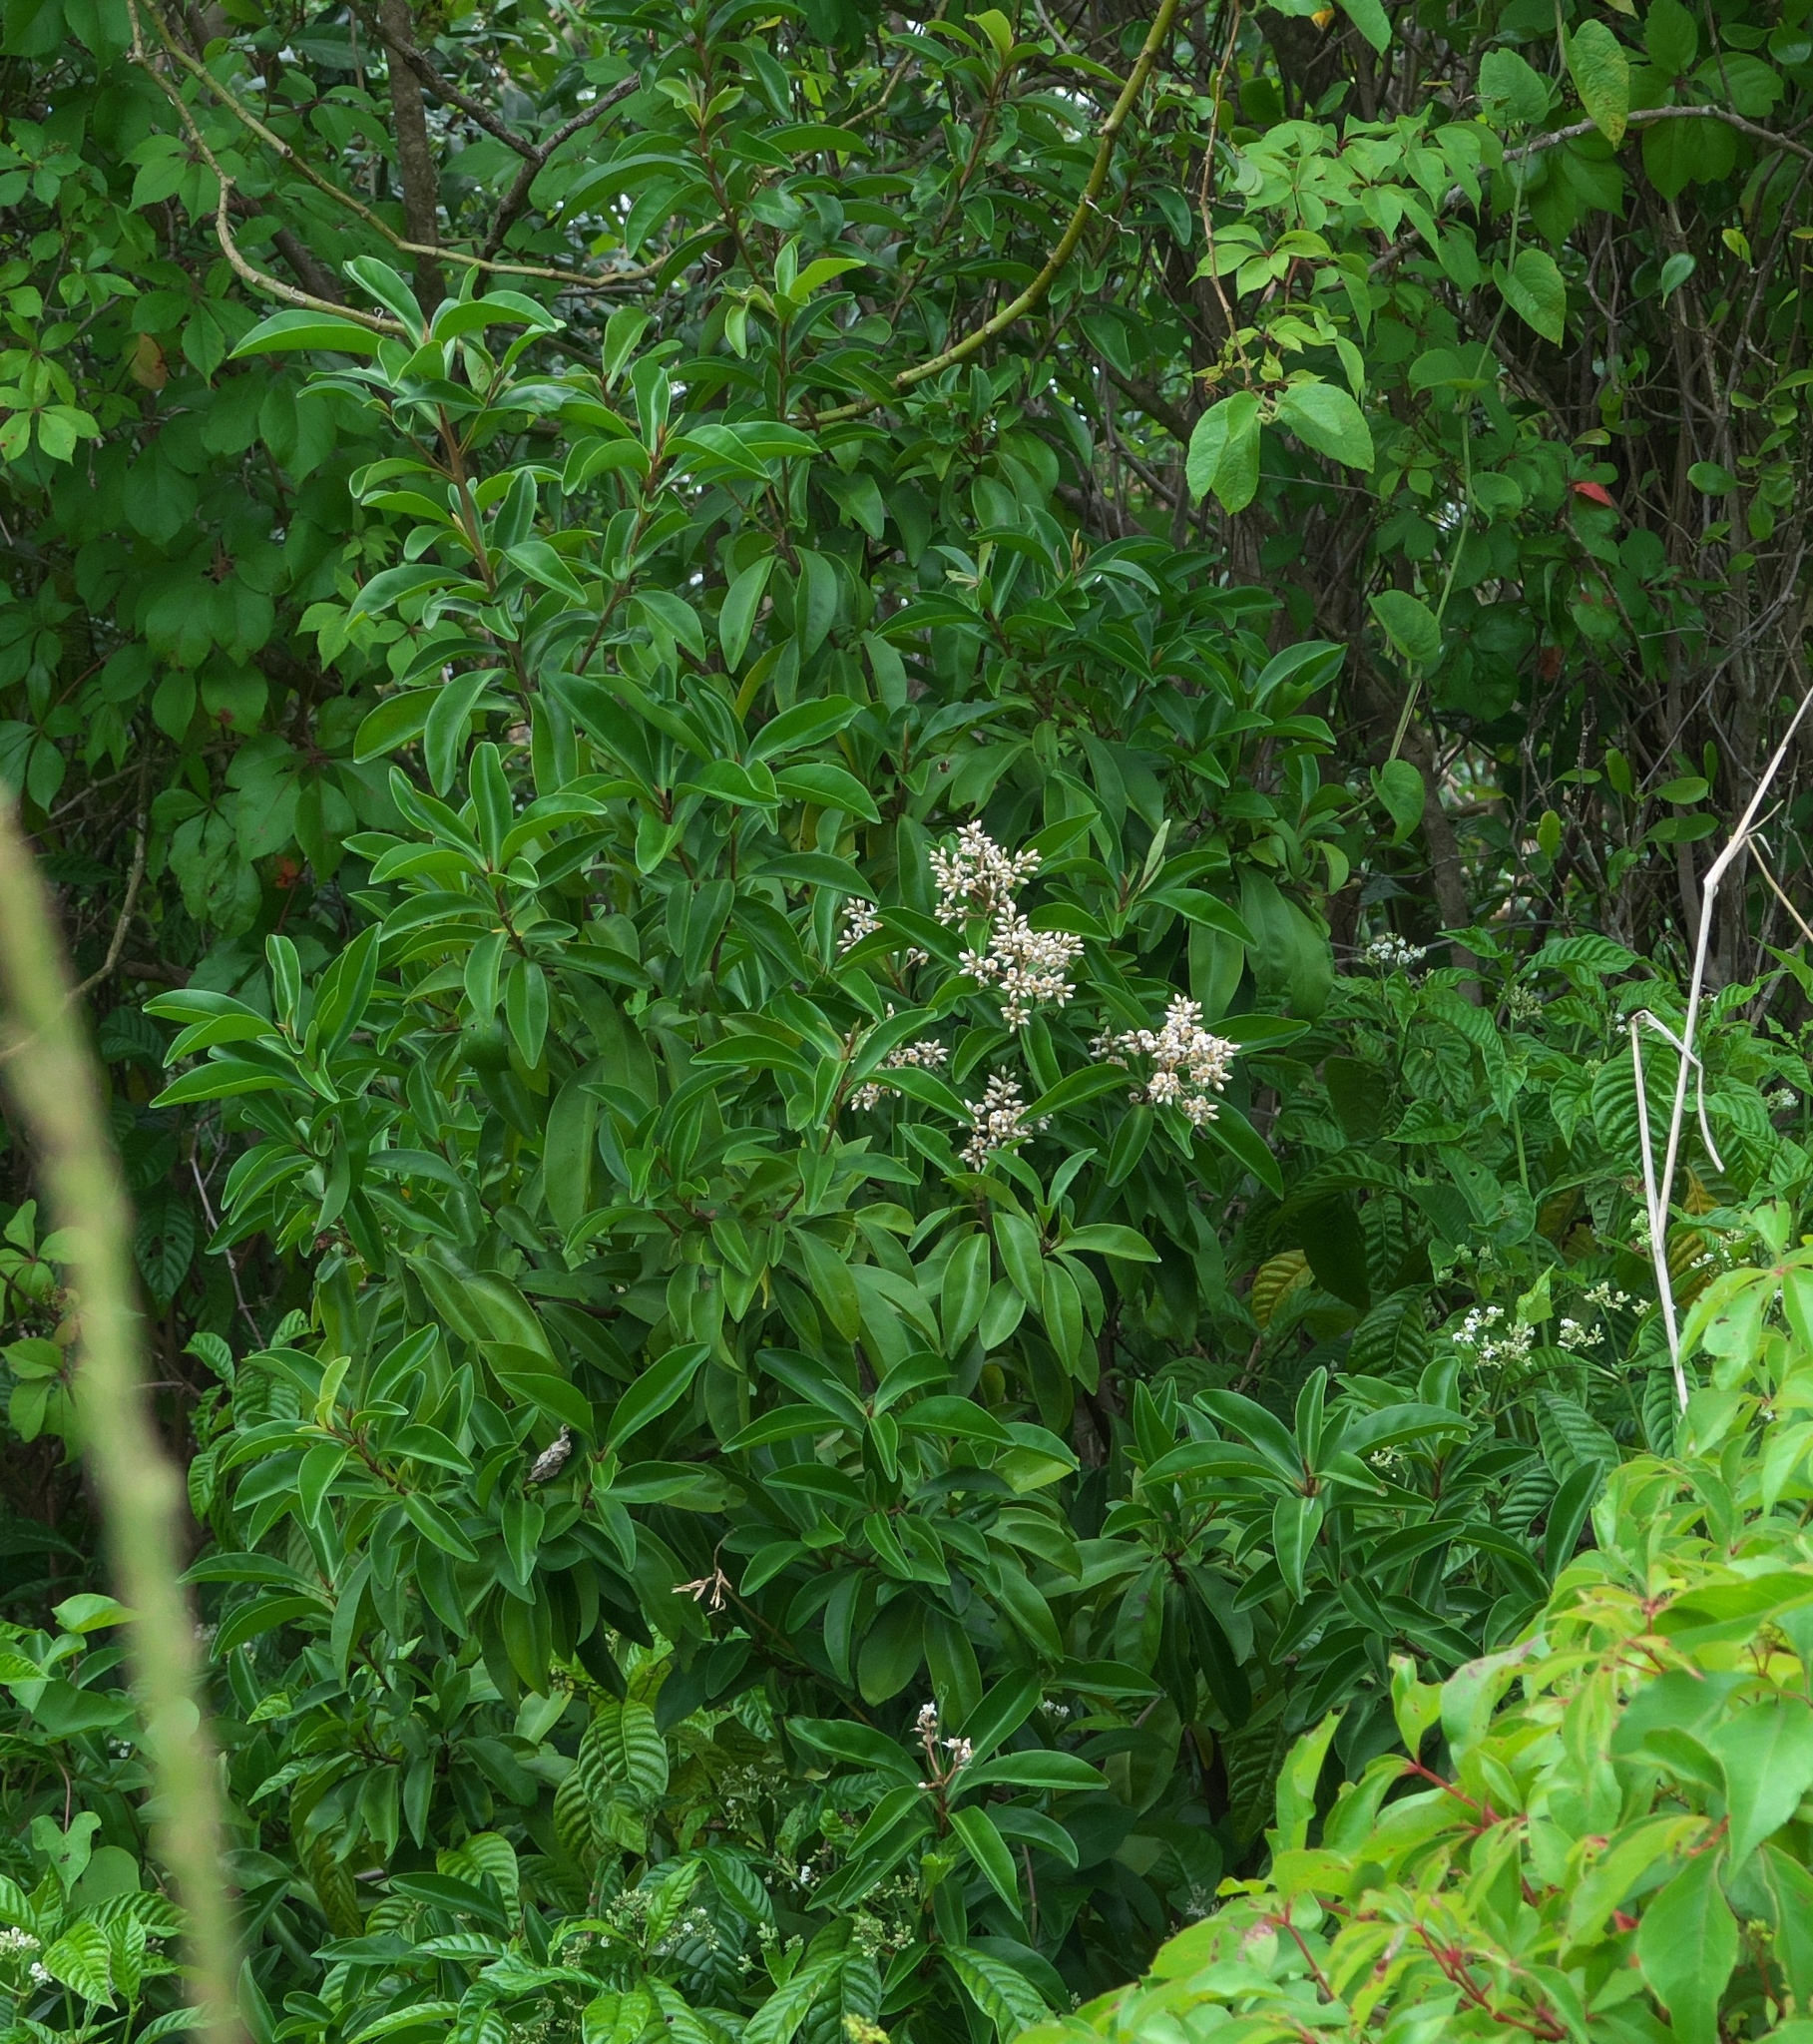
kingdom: Plantae
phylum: Tracheophyta
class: Magnoliopsida
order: Ericales
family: Primulaceae
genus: Ardisia
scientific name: Ardisia escallonioides
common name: Island marlberry
